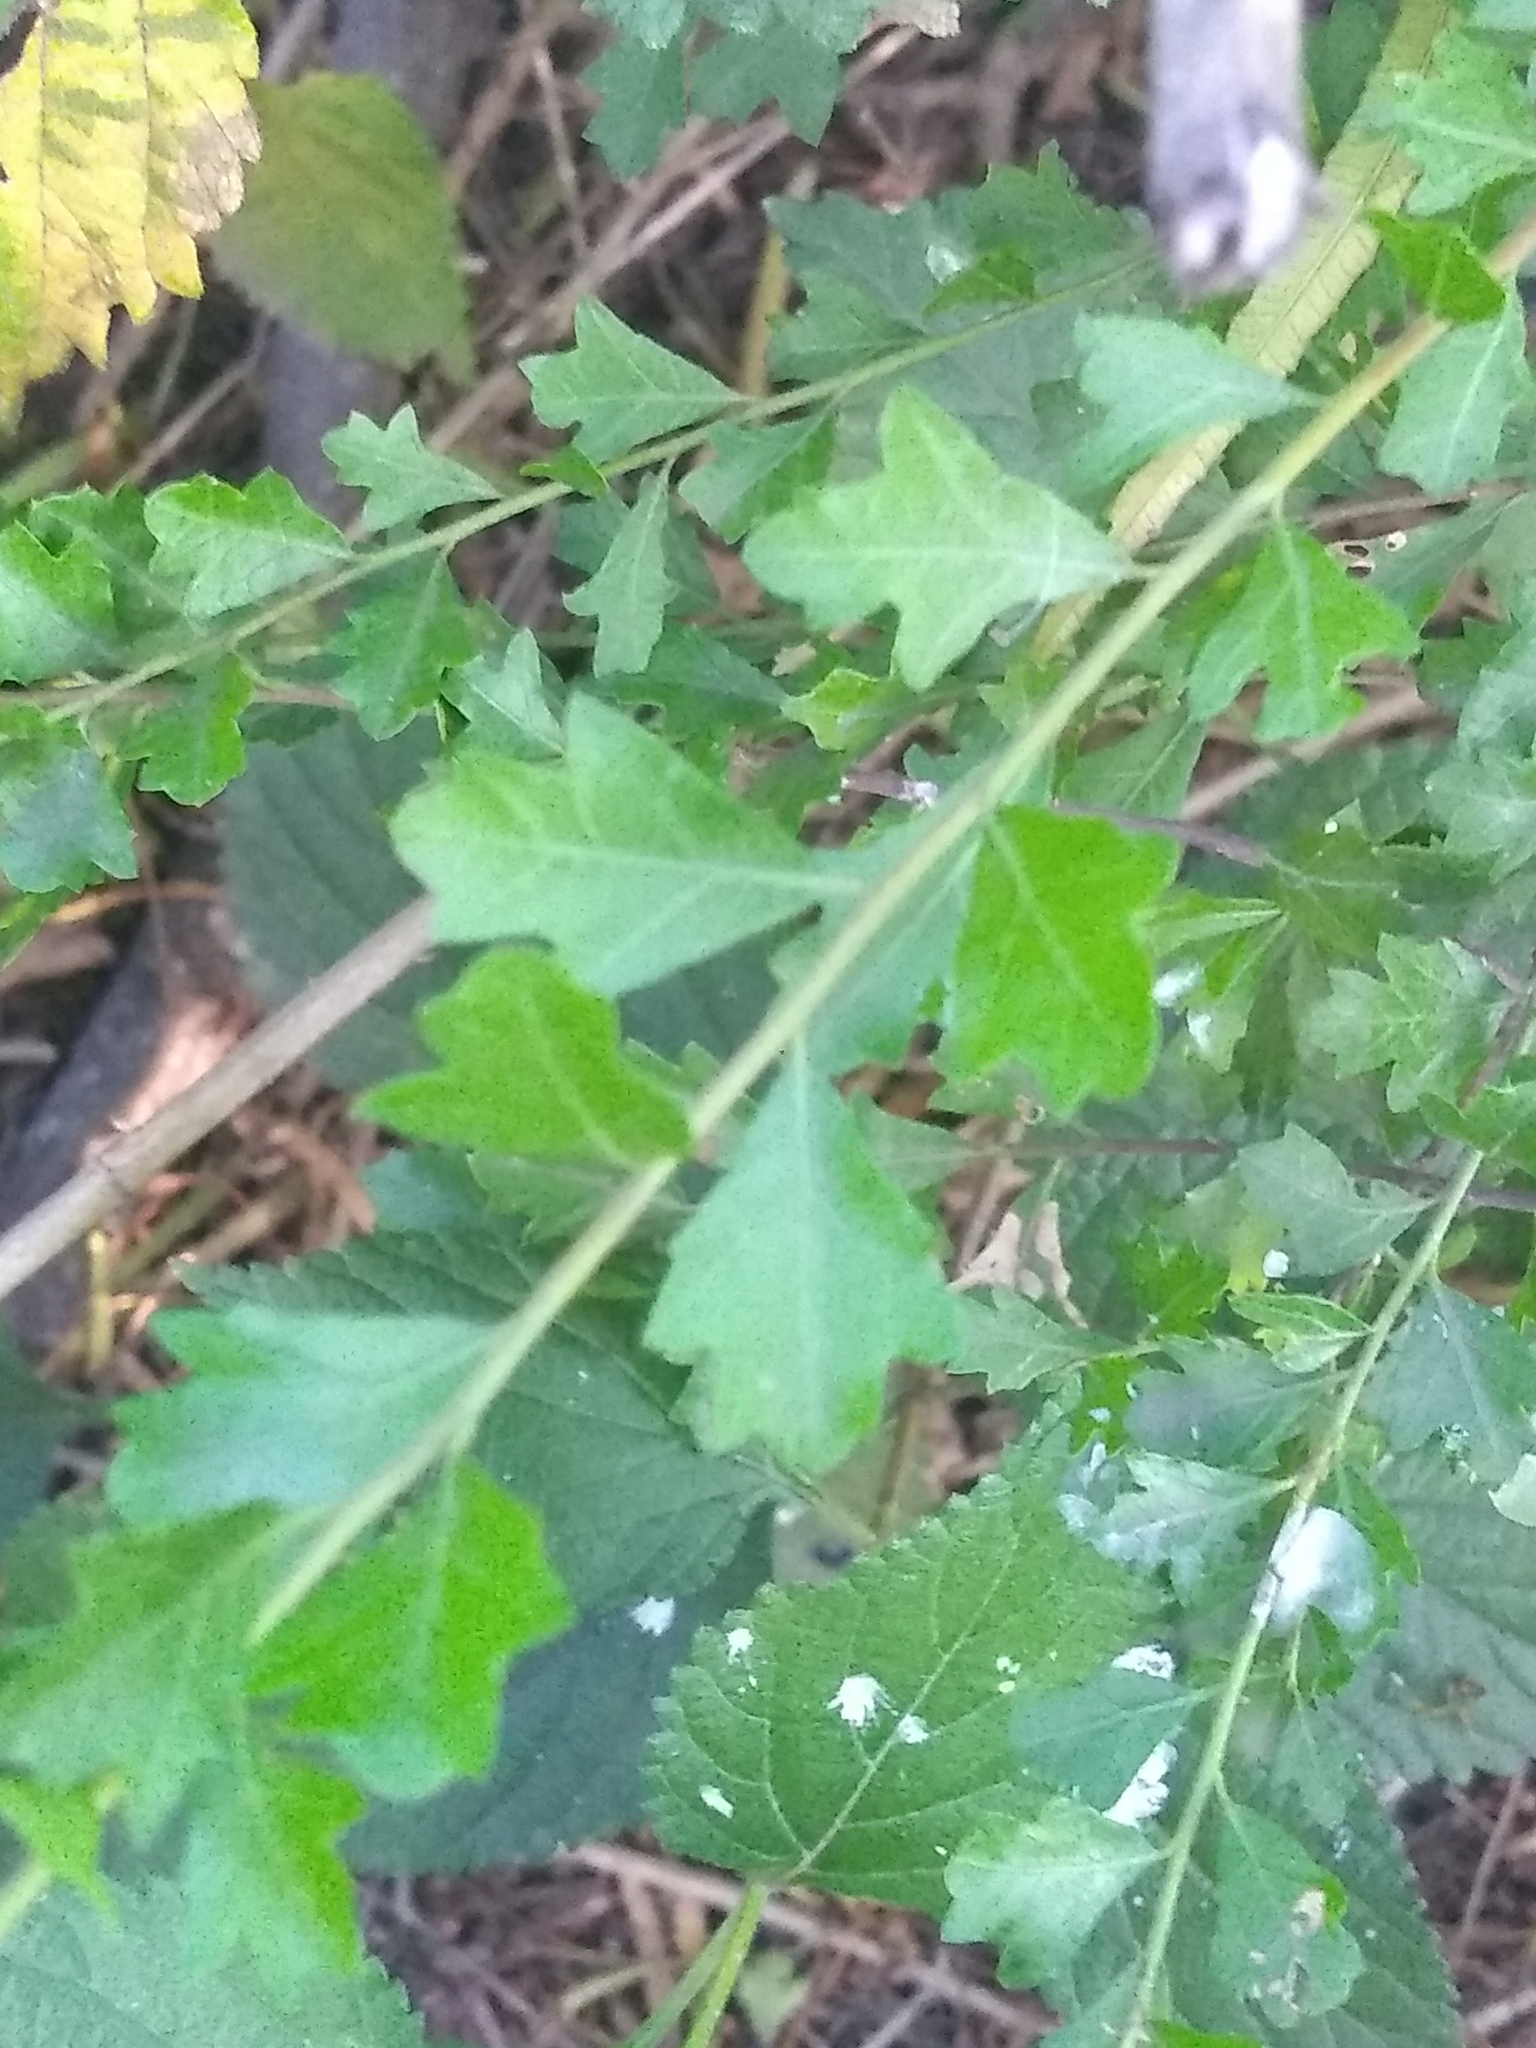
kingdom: Plantae
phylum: Tracheophyta
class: Magnoliopsida
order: Sapindales
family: Anacardiaceae
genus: Schinus
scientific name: Schinus fasciculata
